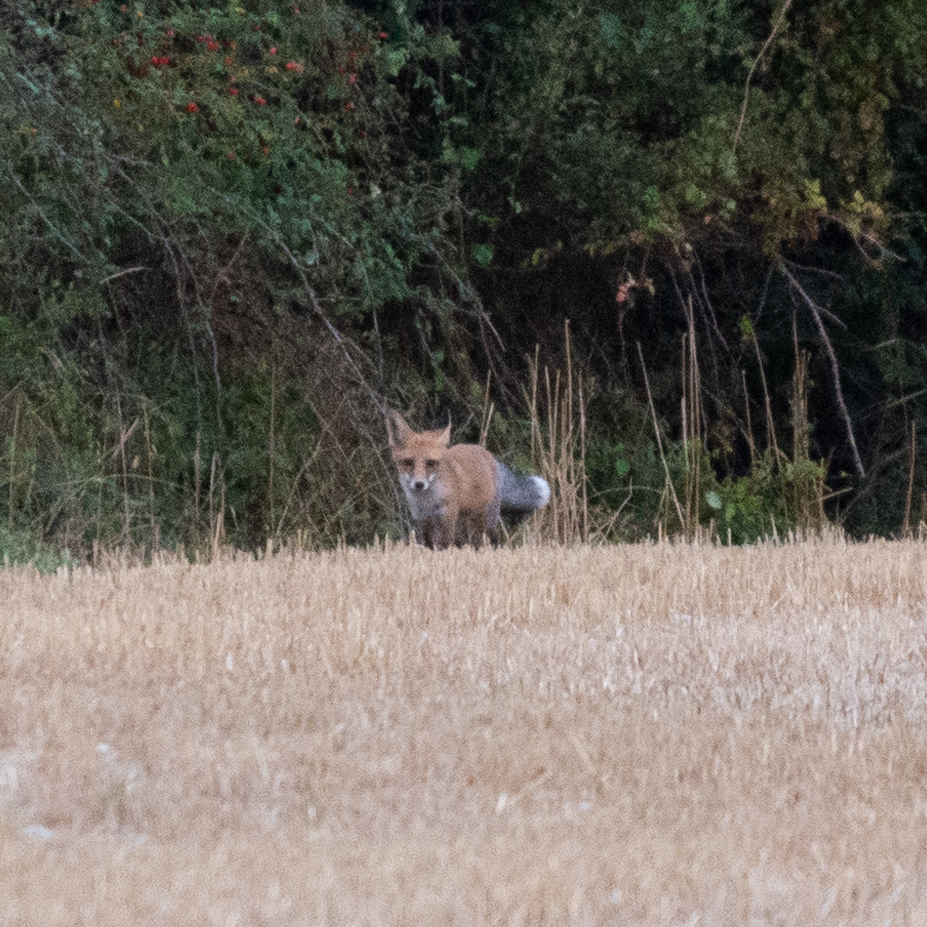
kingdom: Animalia
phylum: Chordata
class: Mammalia
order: Carnivora
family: Canidae
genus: Vulpes
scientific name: Vulpes vulpes
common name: Red fox
